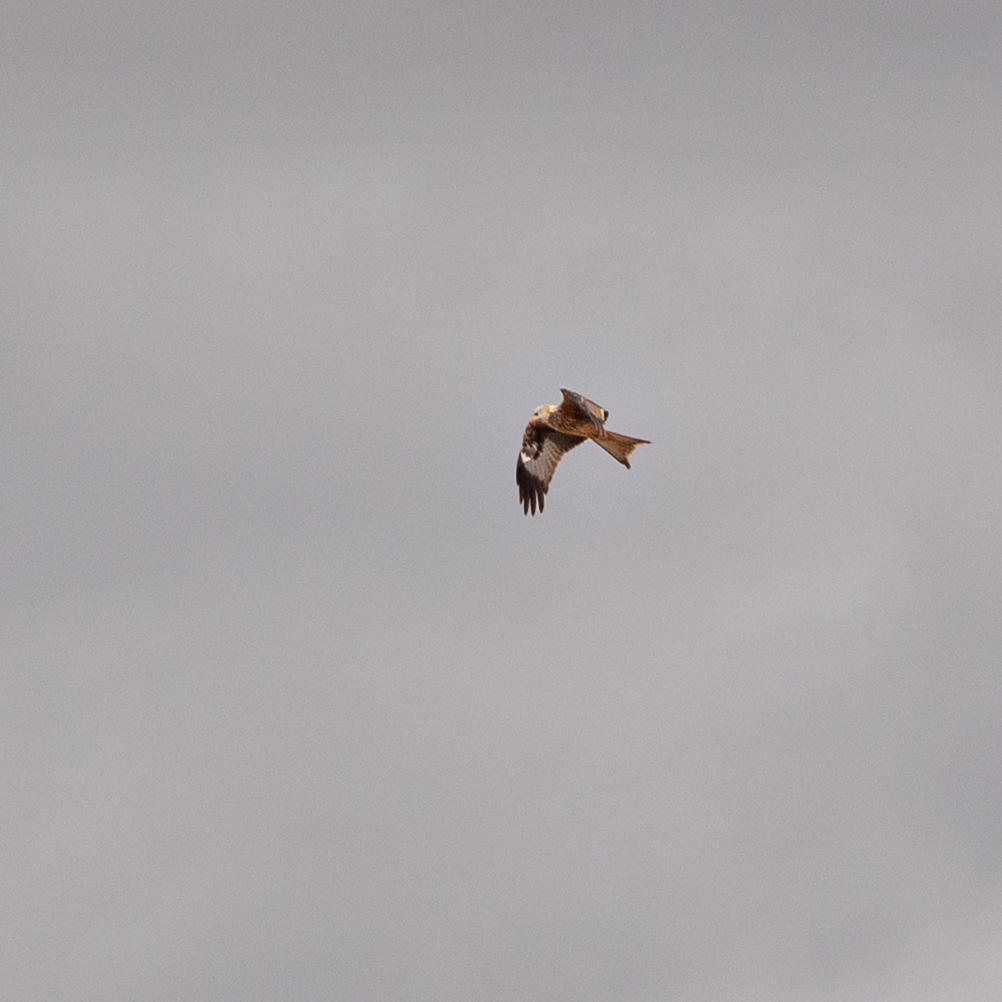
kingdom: Animalia
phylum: Chordata
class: Aves
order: Accipitriformes
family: Accipitridae
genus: Milvus
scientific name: Milvus milvus
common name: Red kite
